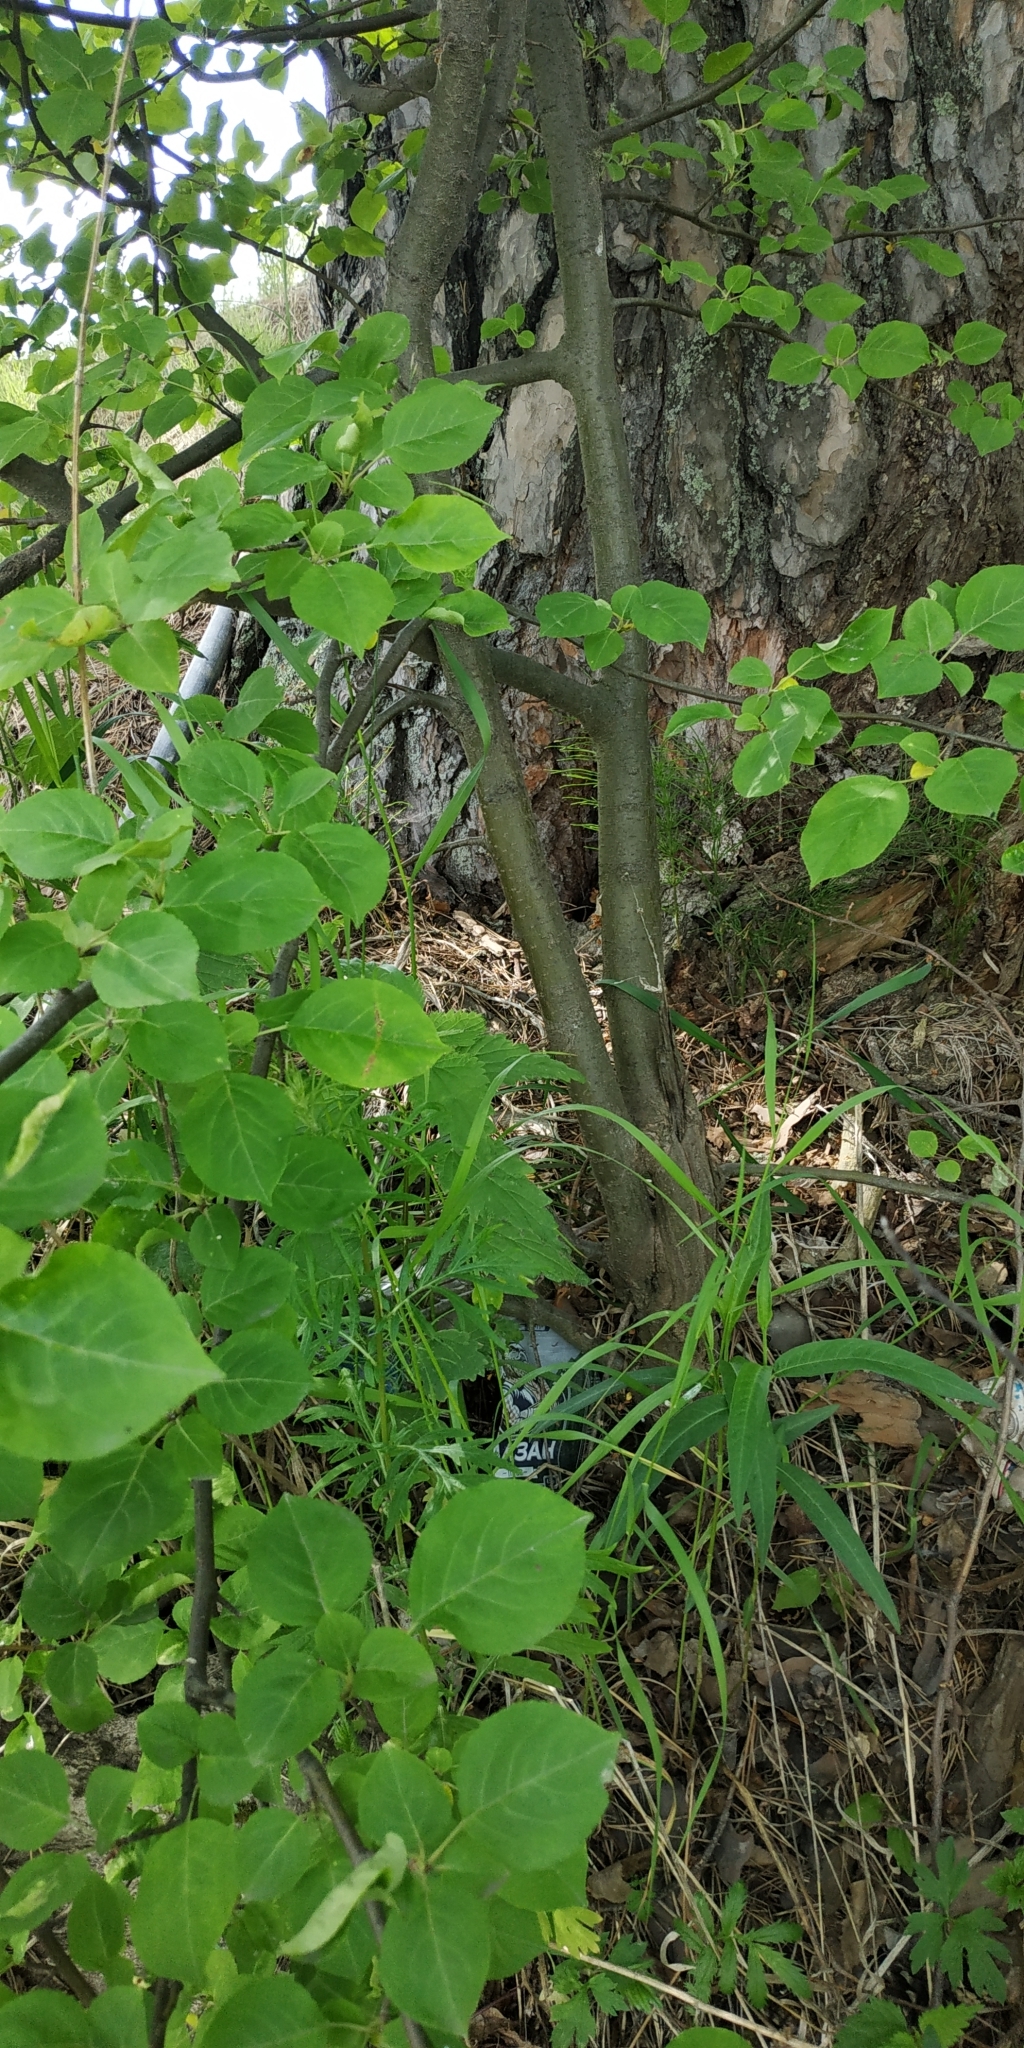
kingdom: Plantae
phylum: Tracheophyta
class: Magnoliopsida
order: Rosales
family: Rosaceae
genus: Malus
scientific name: Malus baccata
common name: Siberian crab
